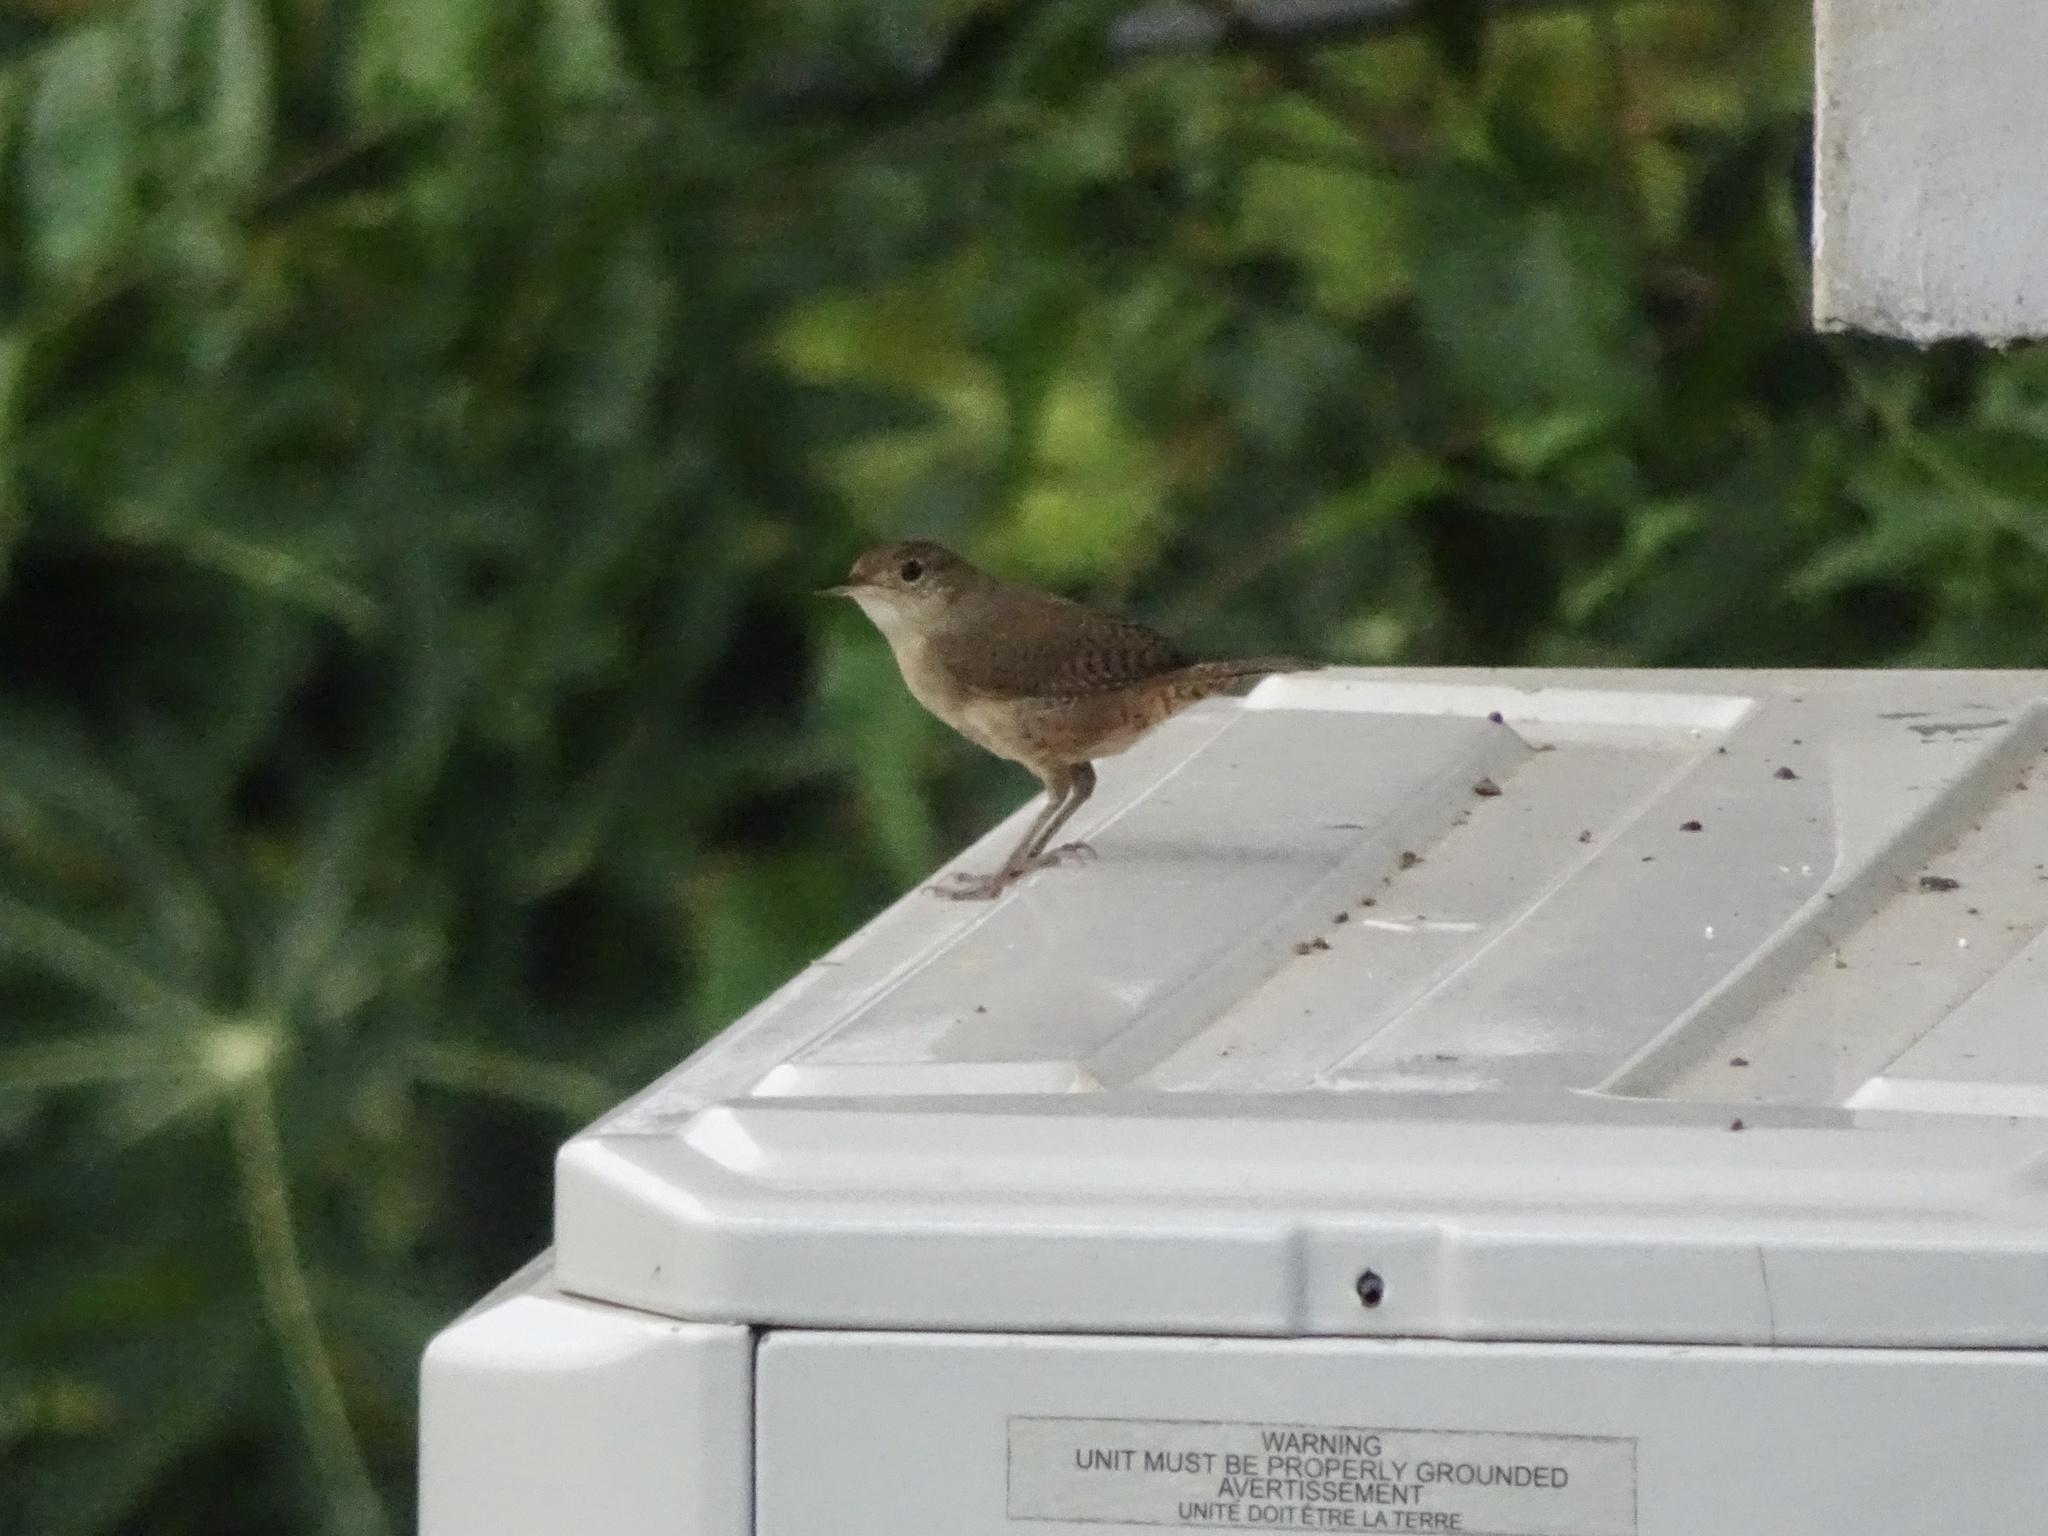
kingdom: Animalia
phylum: Chordata
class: Aves
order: Passeriformes
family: Troglodytidae
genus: Troglodytes
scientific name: Troglodytes aedon
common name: House wren
